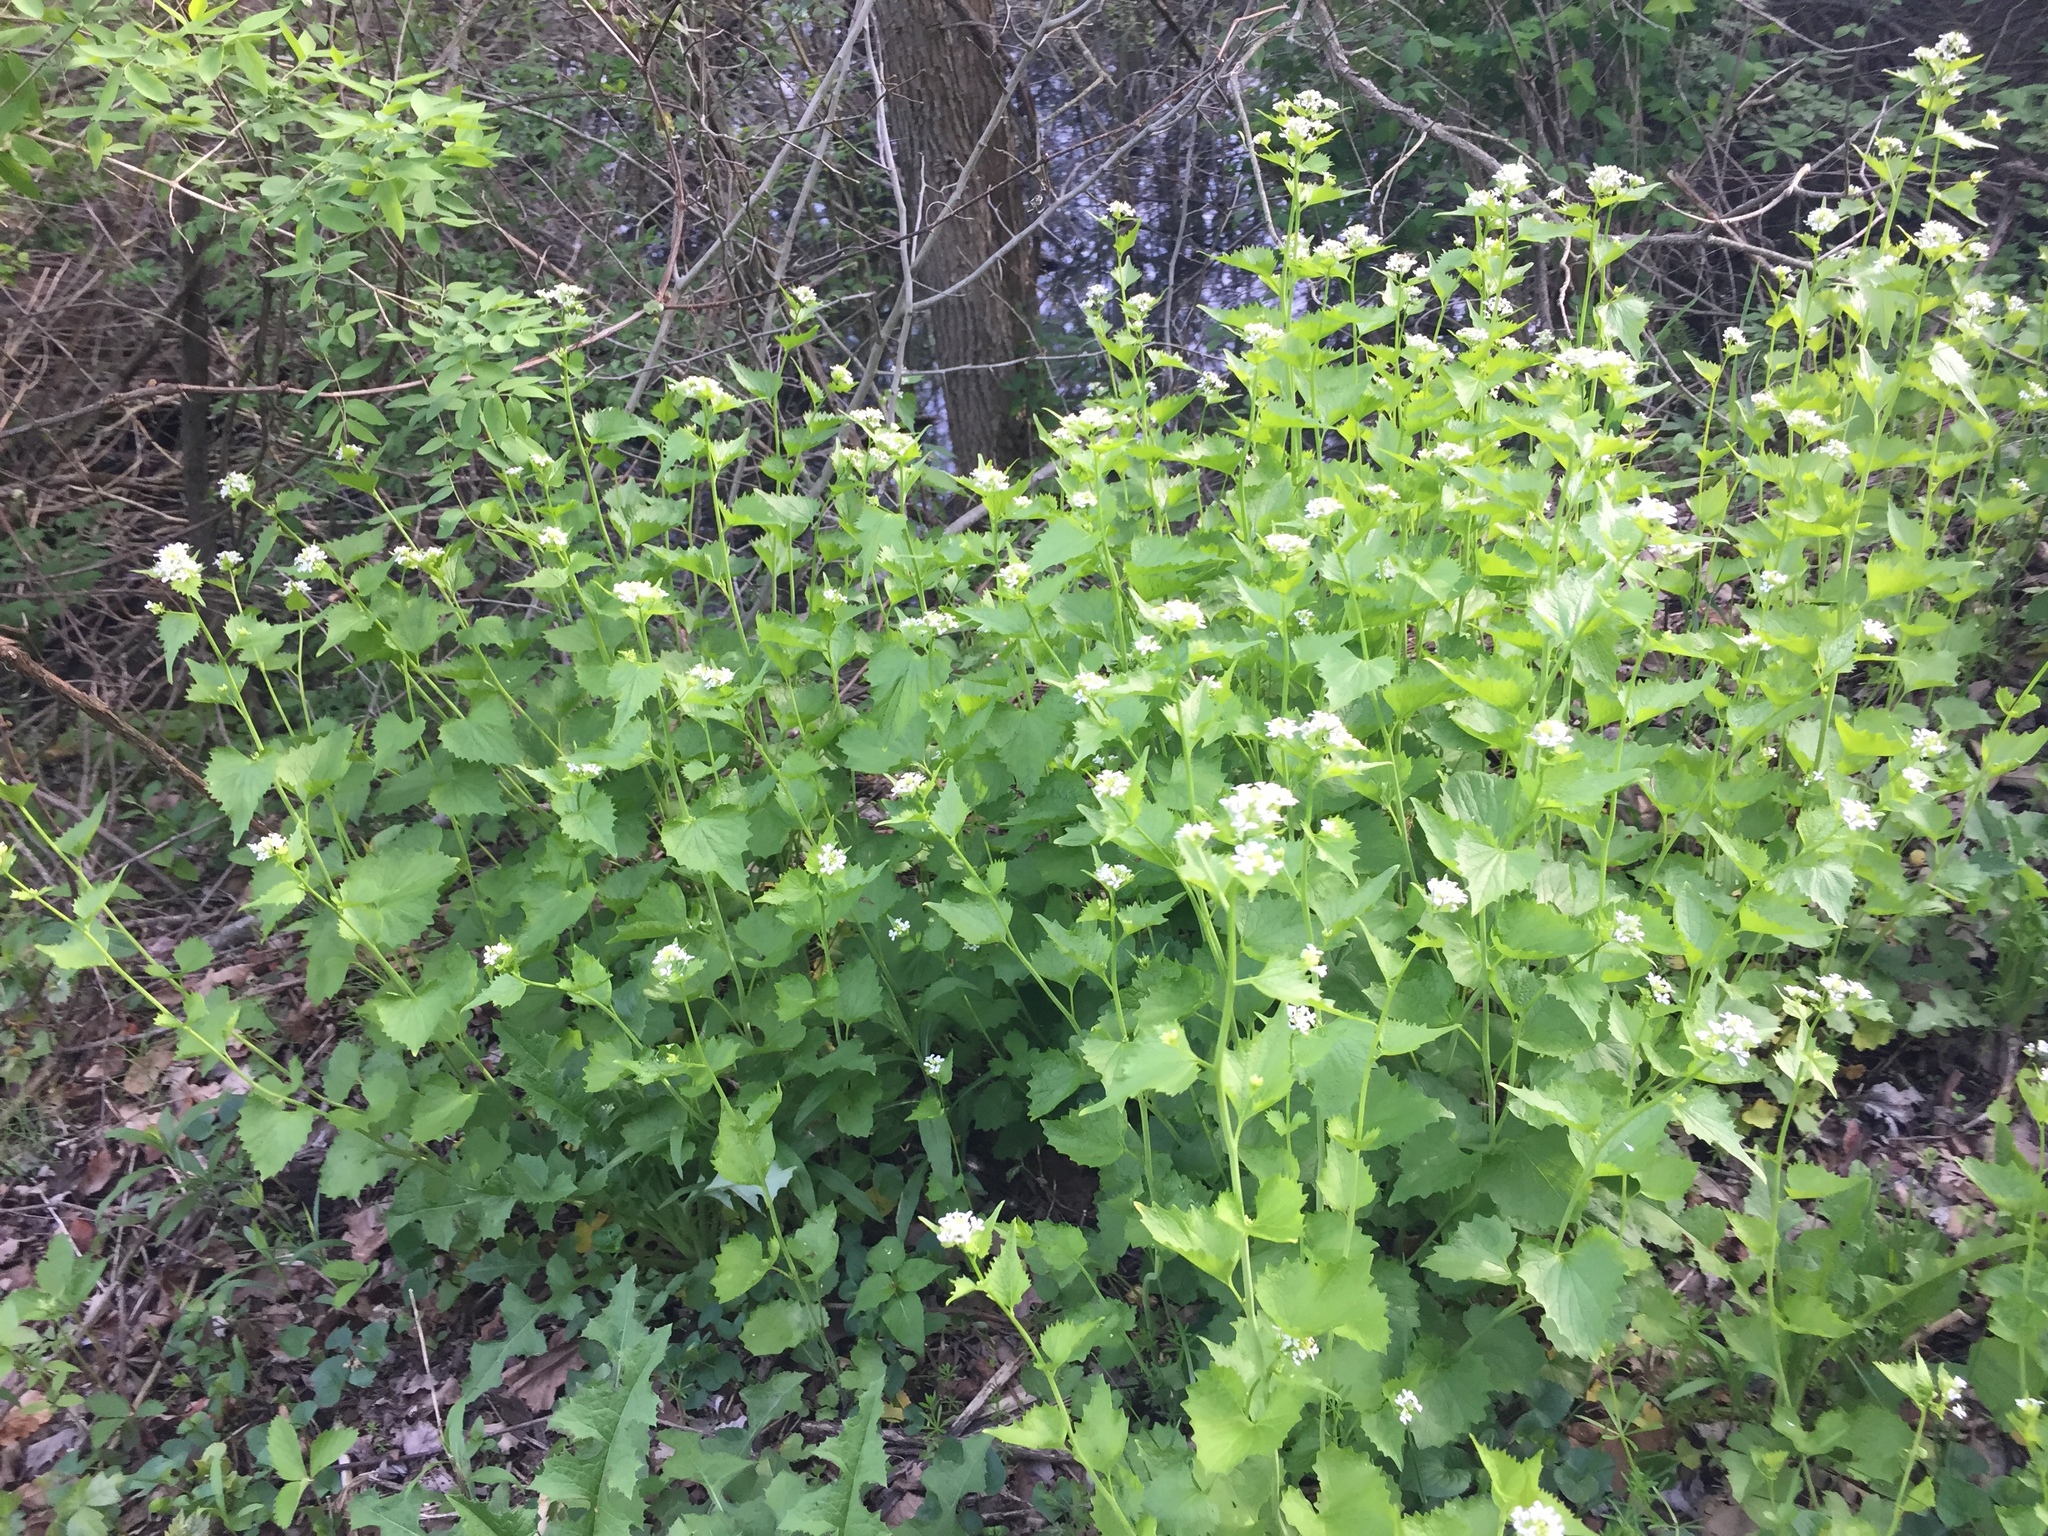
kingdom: Plantae
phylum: Tracheophyta
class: Magnoliopsida
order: Brassicales
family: Brassicaceae
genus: Alliaria
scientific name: Alliaria petiolata
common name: Garlic mustard
